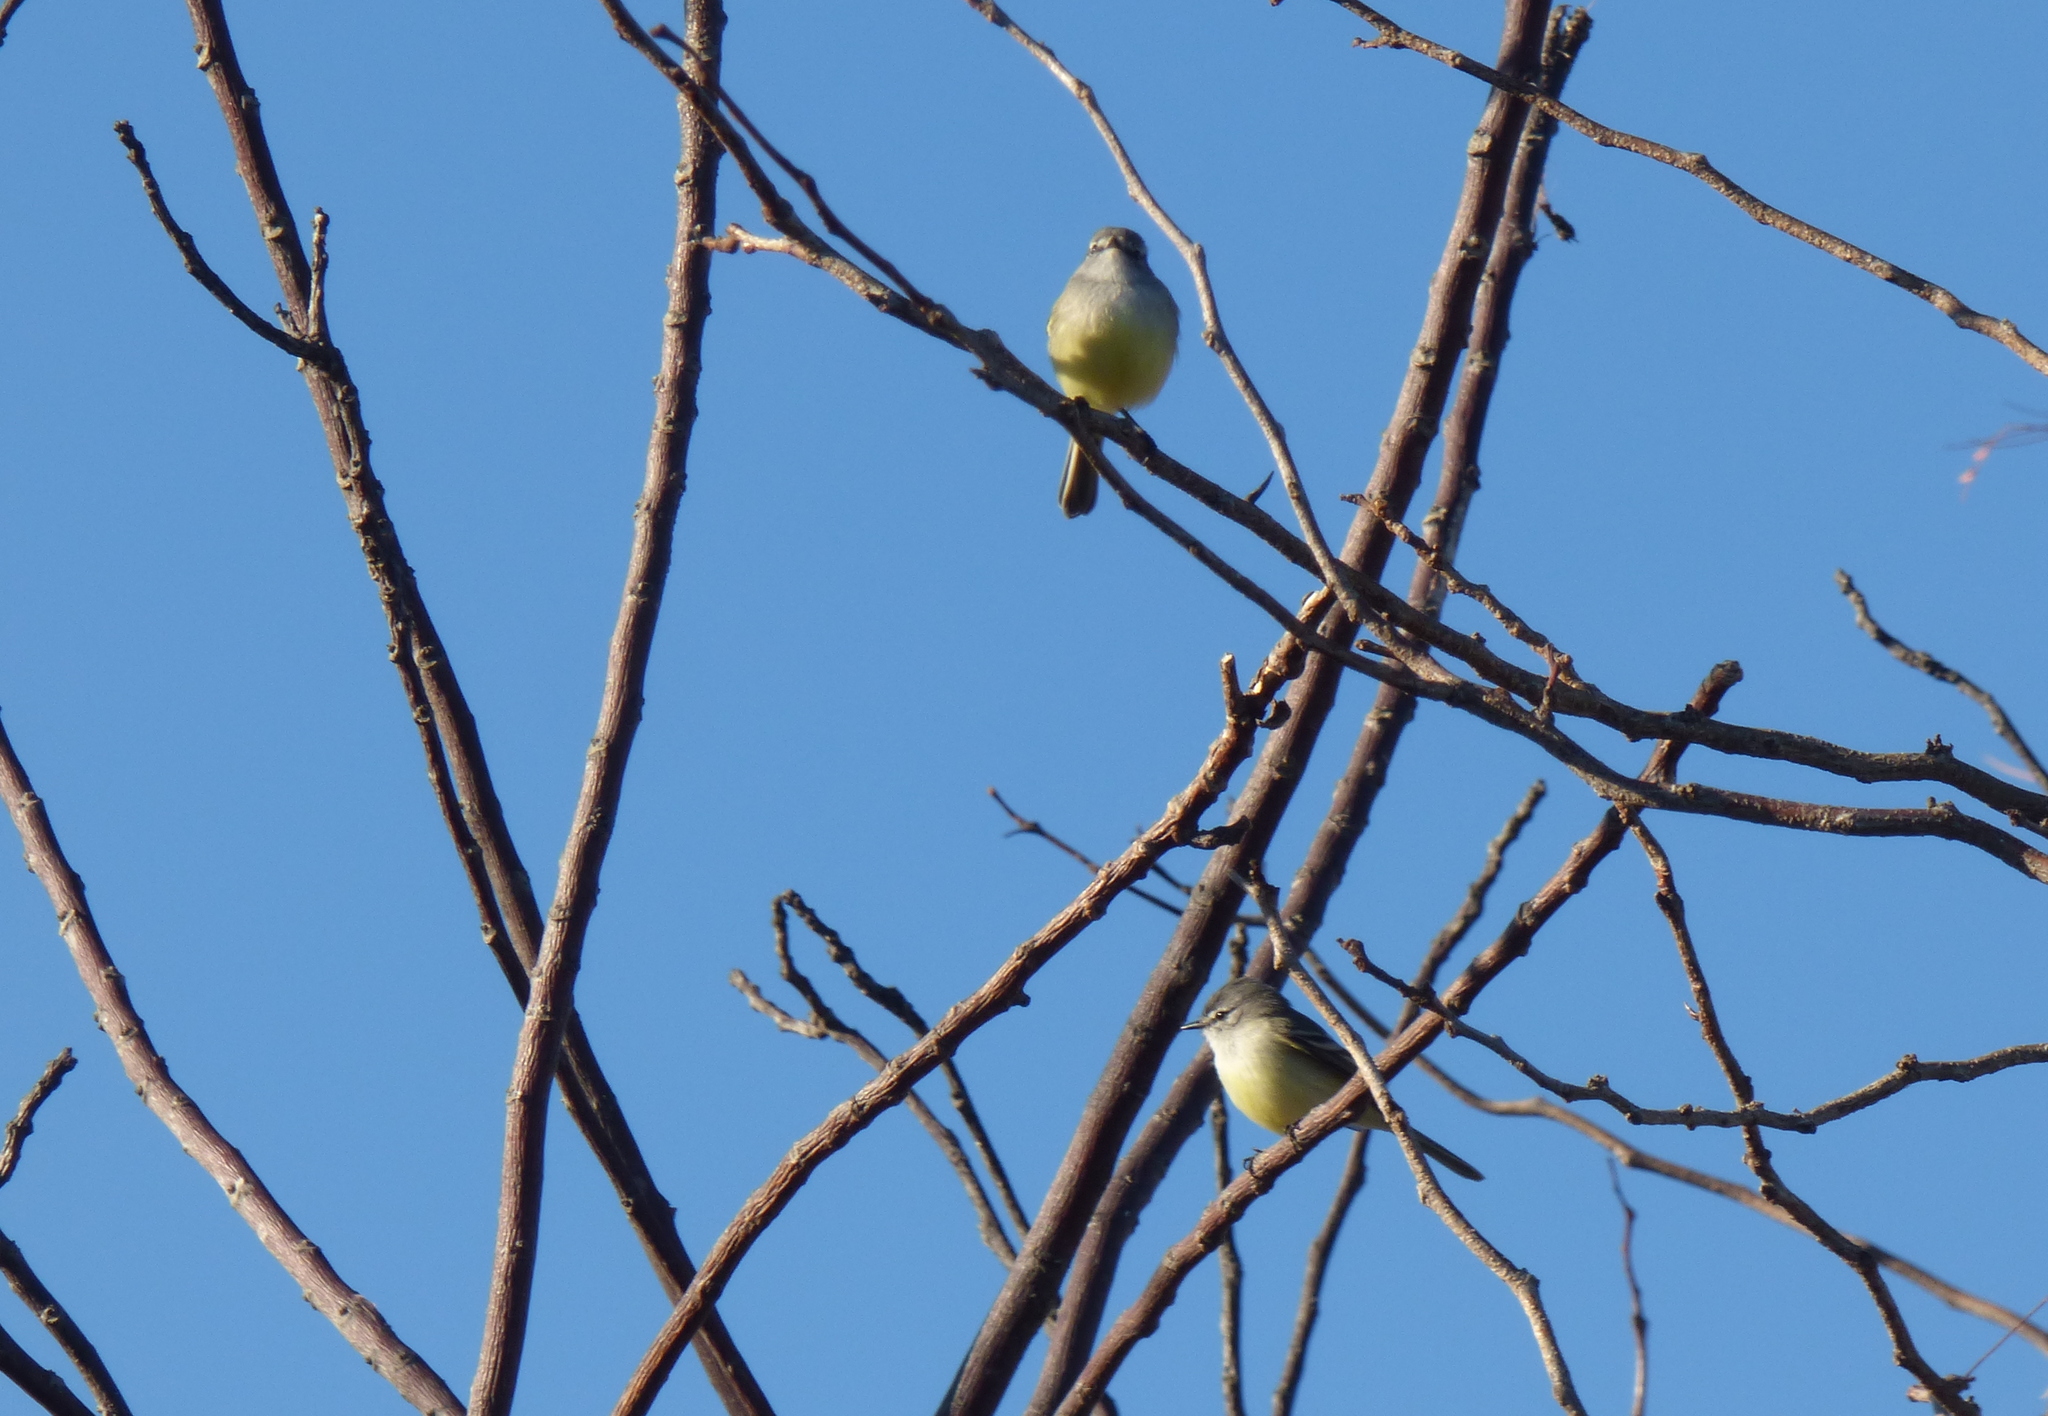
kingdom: Animalia
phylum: Chordata
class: Aves
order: Passeriformes
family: Tyrannidae
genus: Serpophaga
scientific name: Serpophaga subcristata
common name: White-crested tyrannulet
